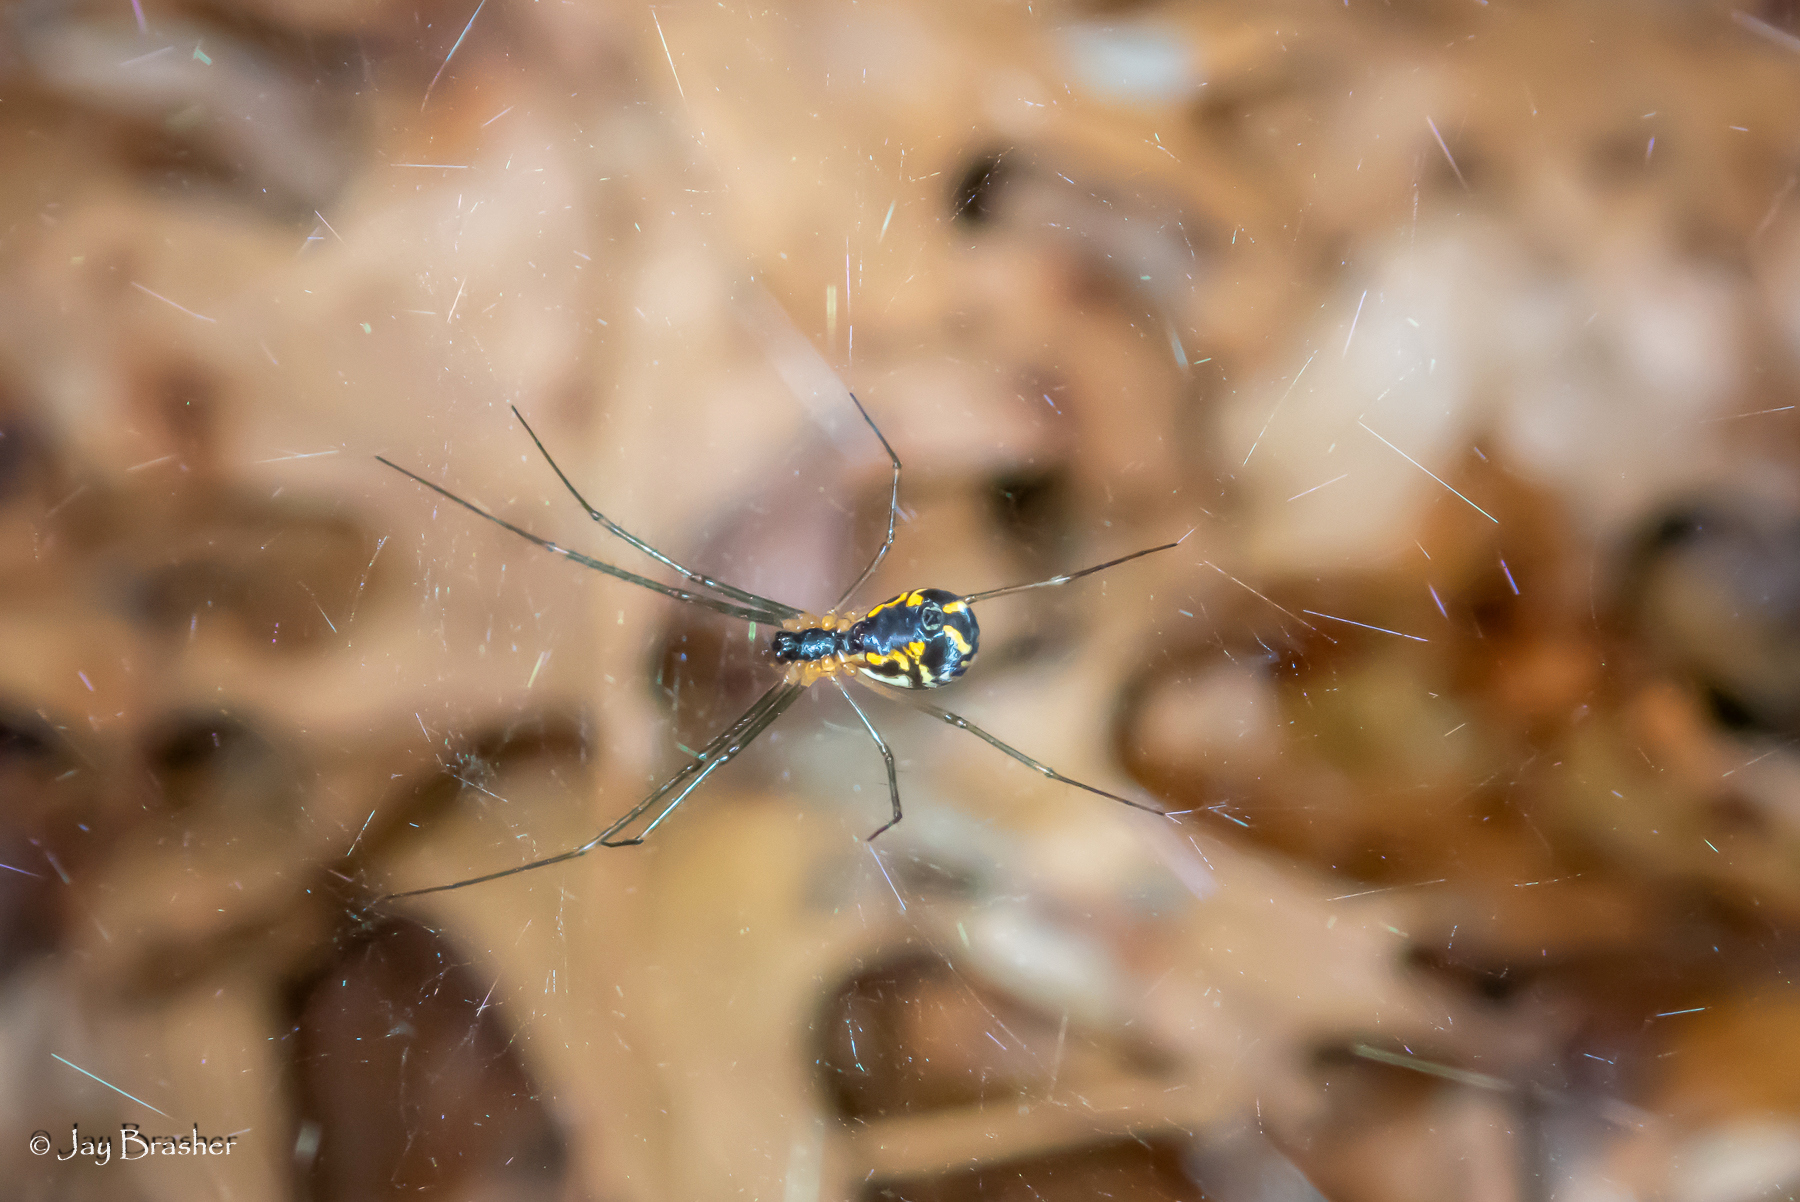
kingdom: Animalia
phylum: Arthropoda
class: Arachnida
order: Araneae
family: Linyphiidae
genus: Neriene
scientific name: Neriene radiata
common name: Filmy dome spider
